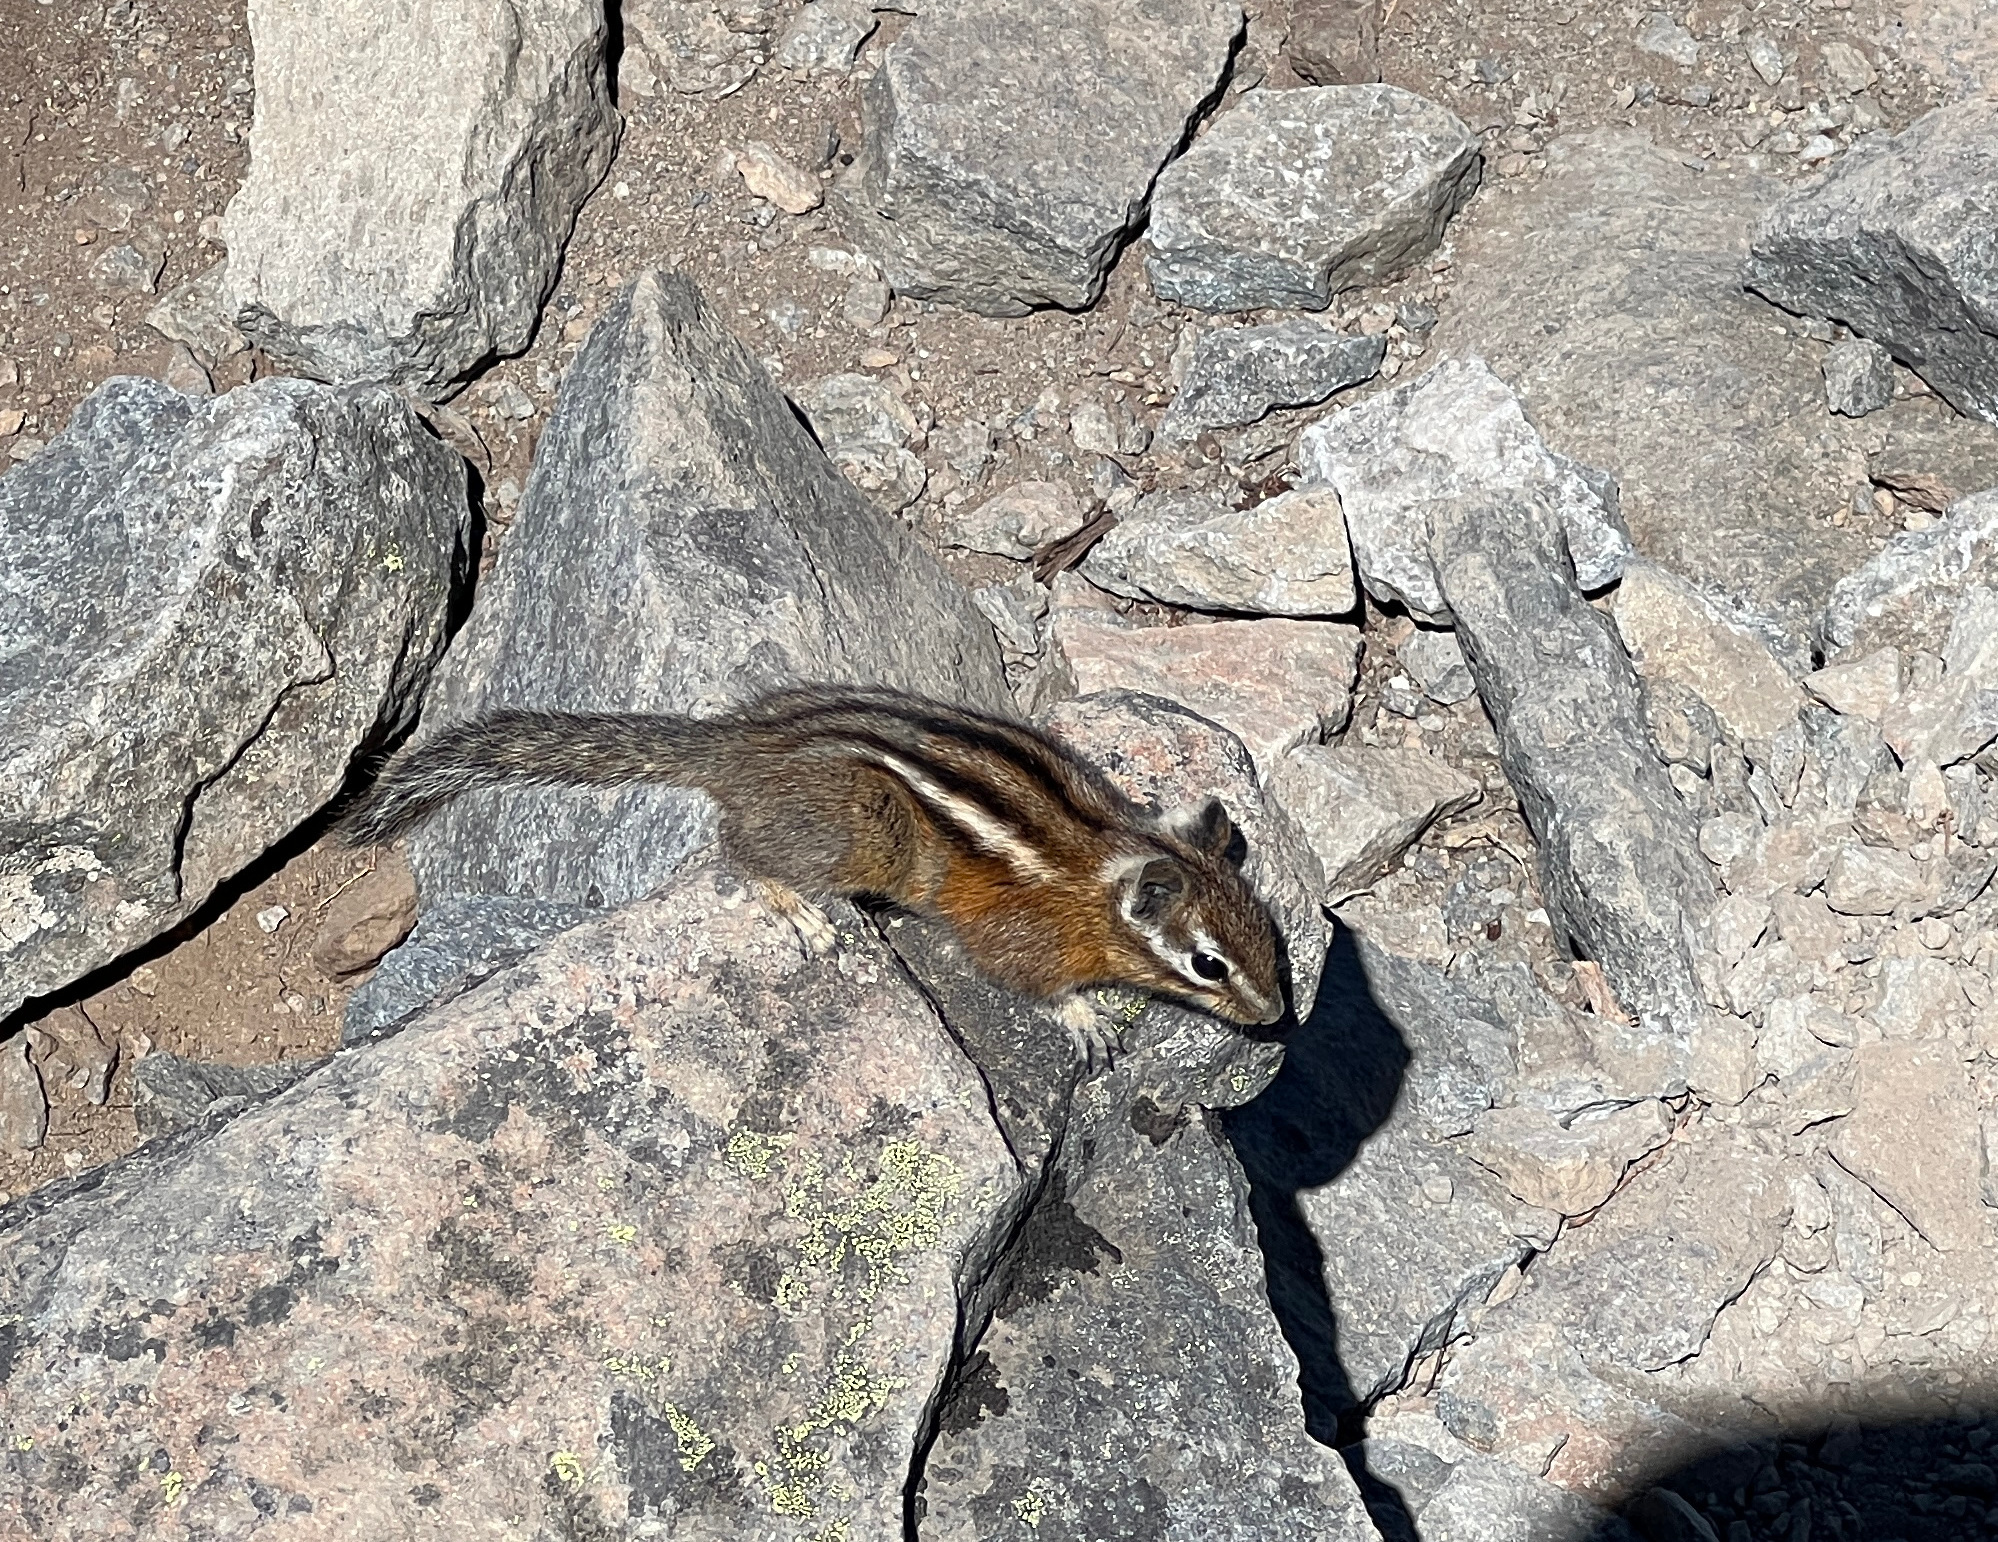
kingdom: Animalia
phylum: Chordata
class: Mammalia
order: Rodentia
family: Sciuridae
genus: Tamias
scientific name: Tamias amoenus
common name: Yellow-pine chipmunk
